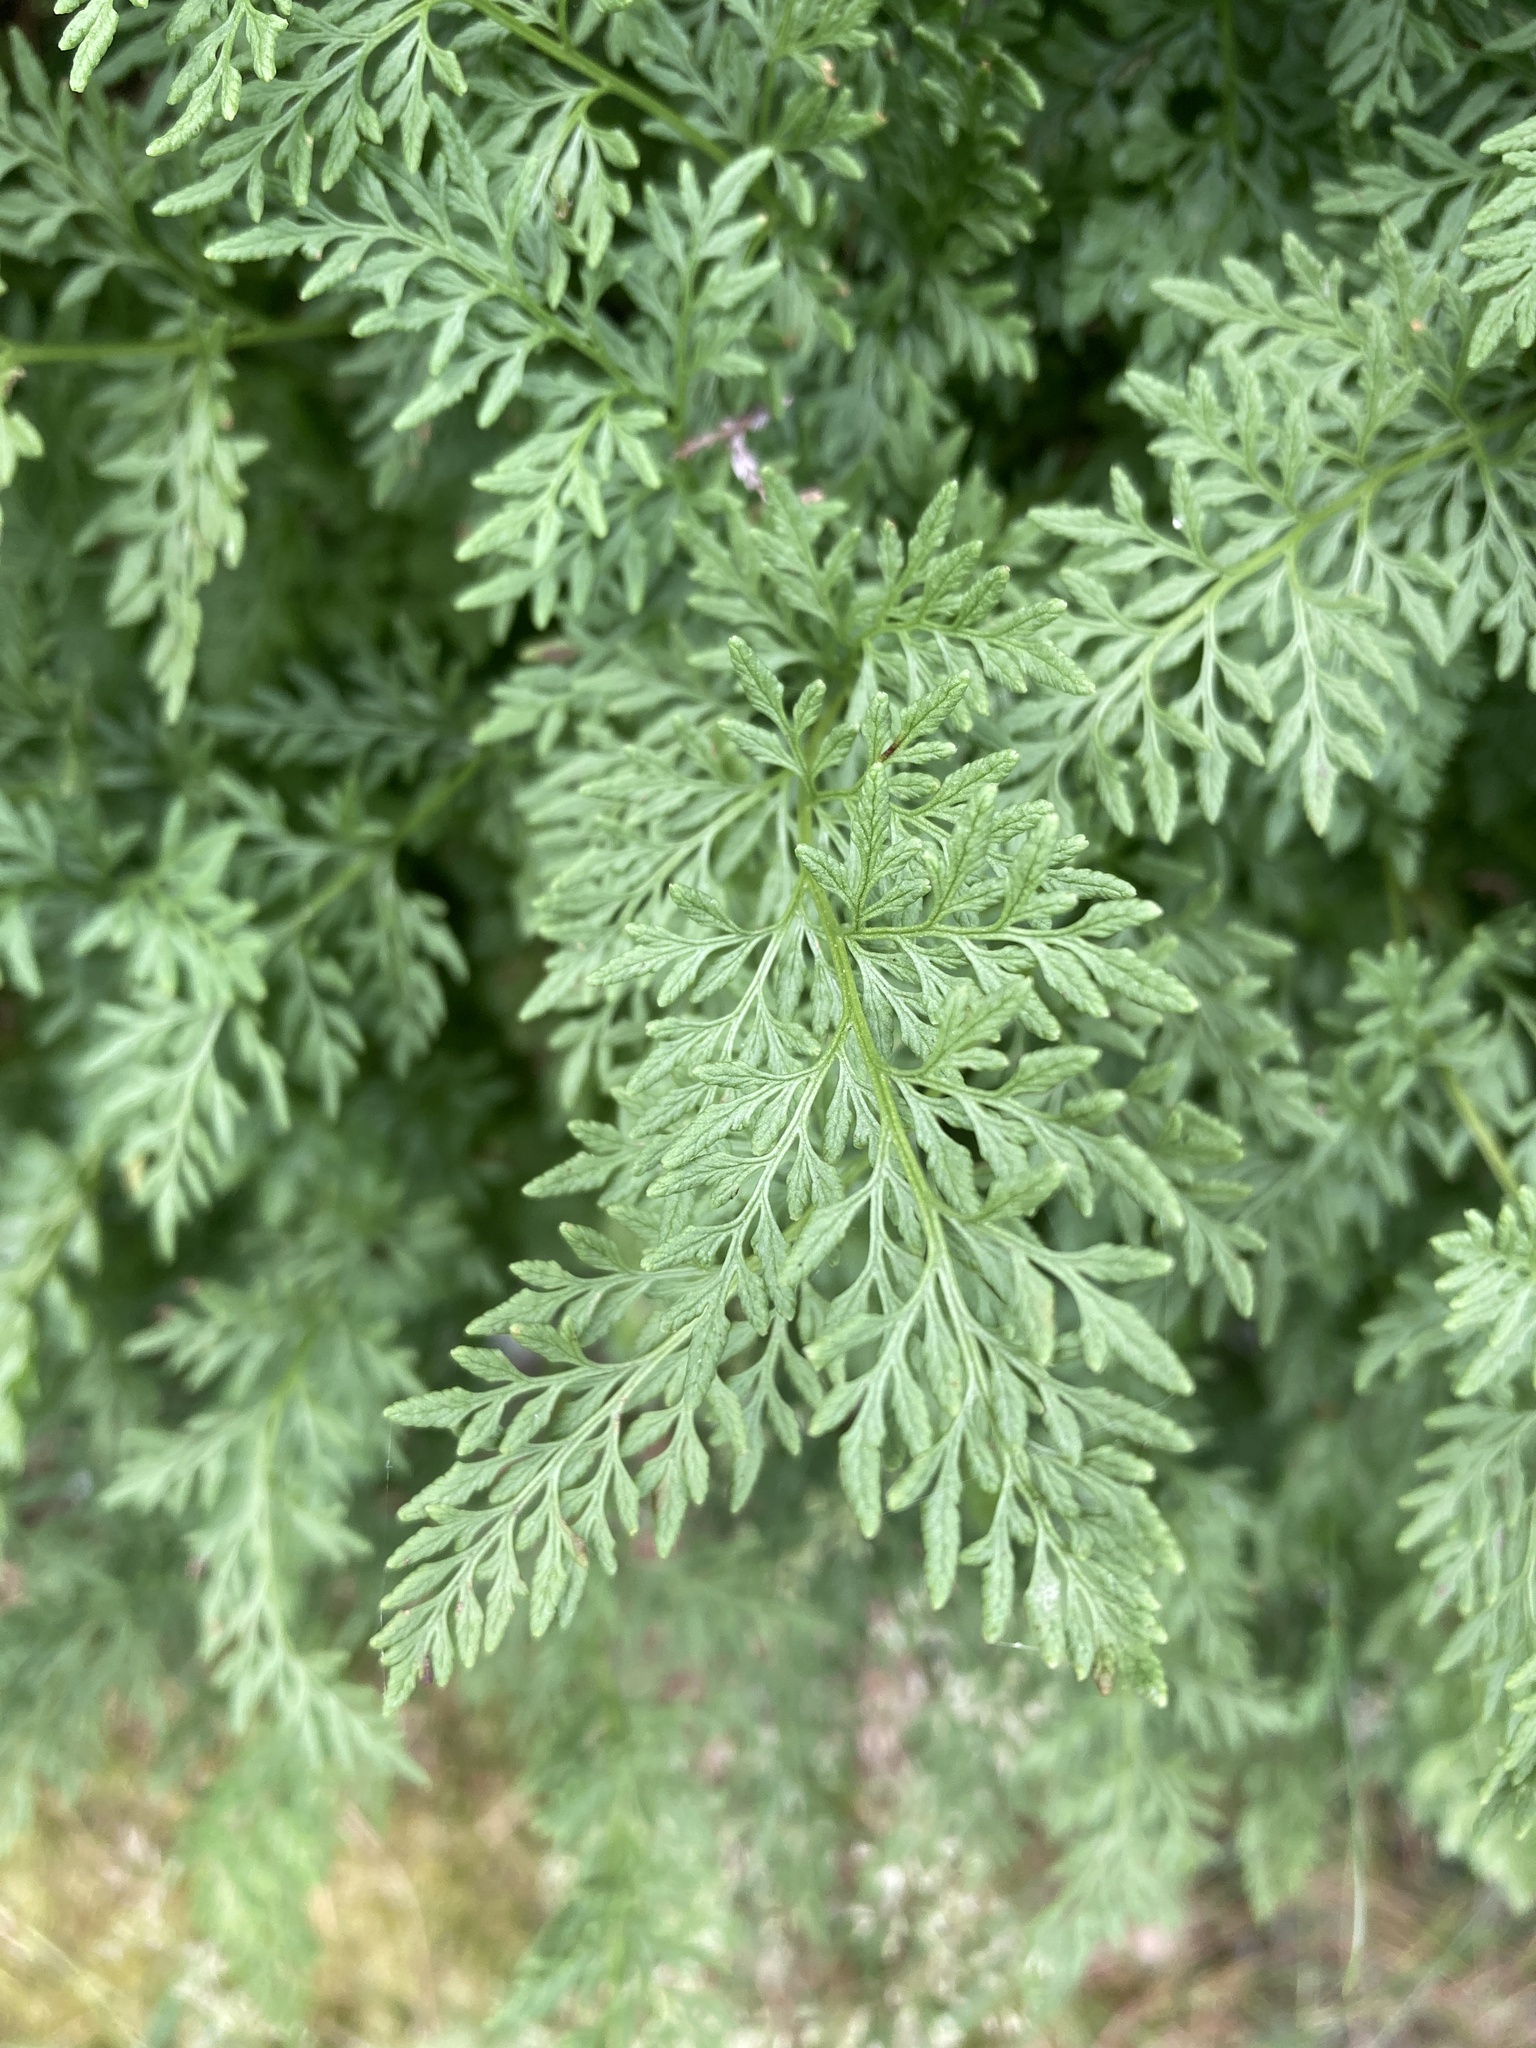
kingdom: Plantae
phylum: Tracheophyta
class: Polypodiopsida
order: Polypodiales
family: Pteridaceae
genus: Cryptogramma
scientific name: Cryptogramma crispa
